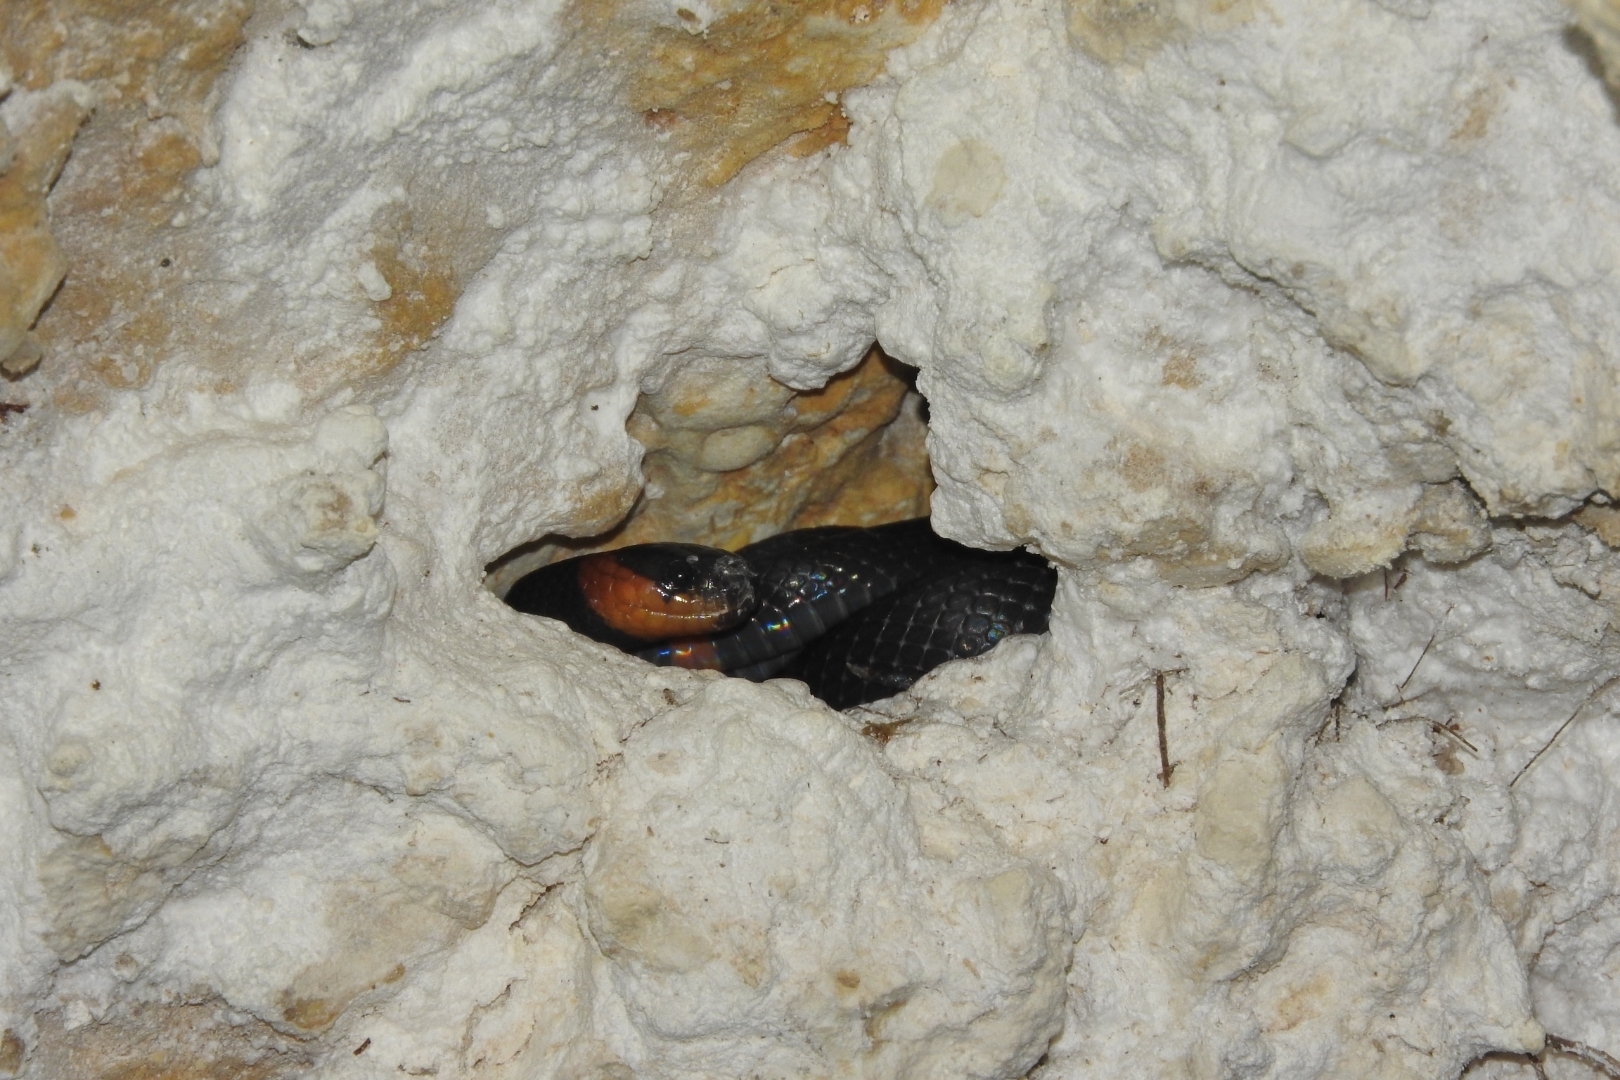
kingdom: Animalia
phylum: Chordata
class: Squamata
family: Colubridae
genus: Geophis
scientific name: Geophis
